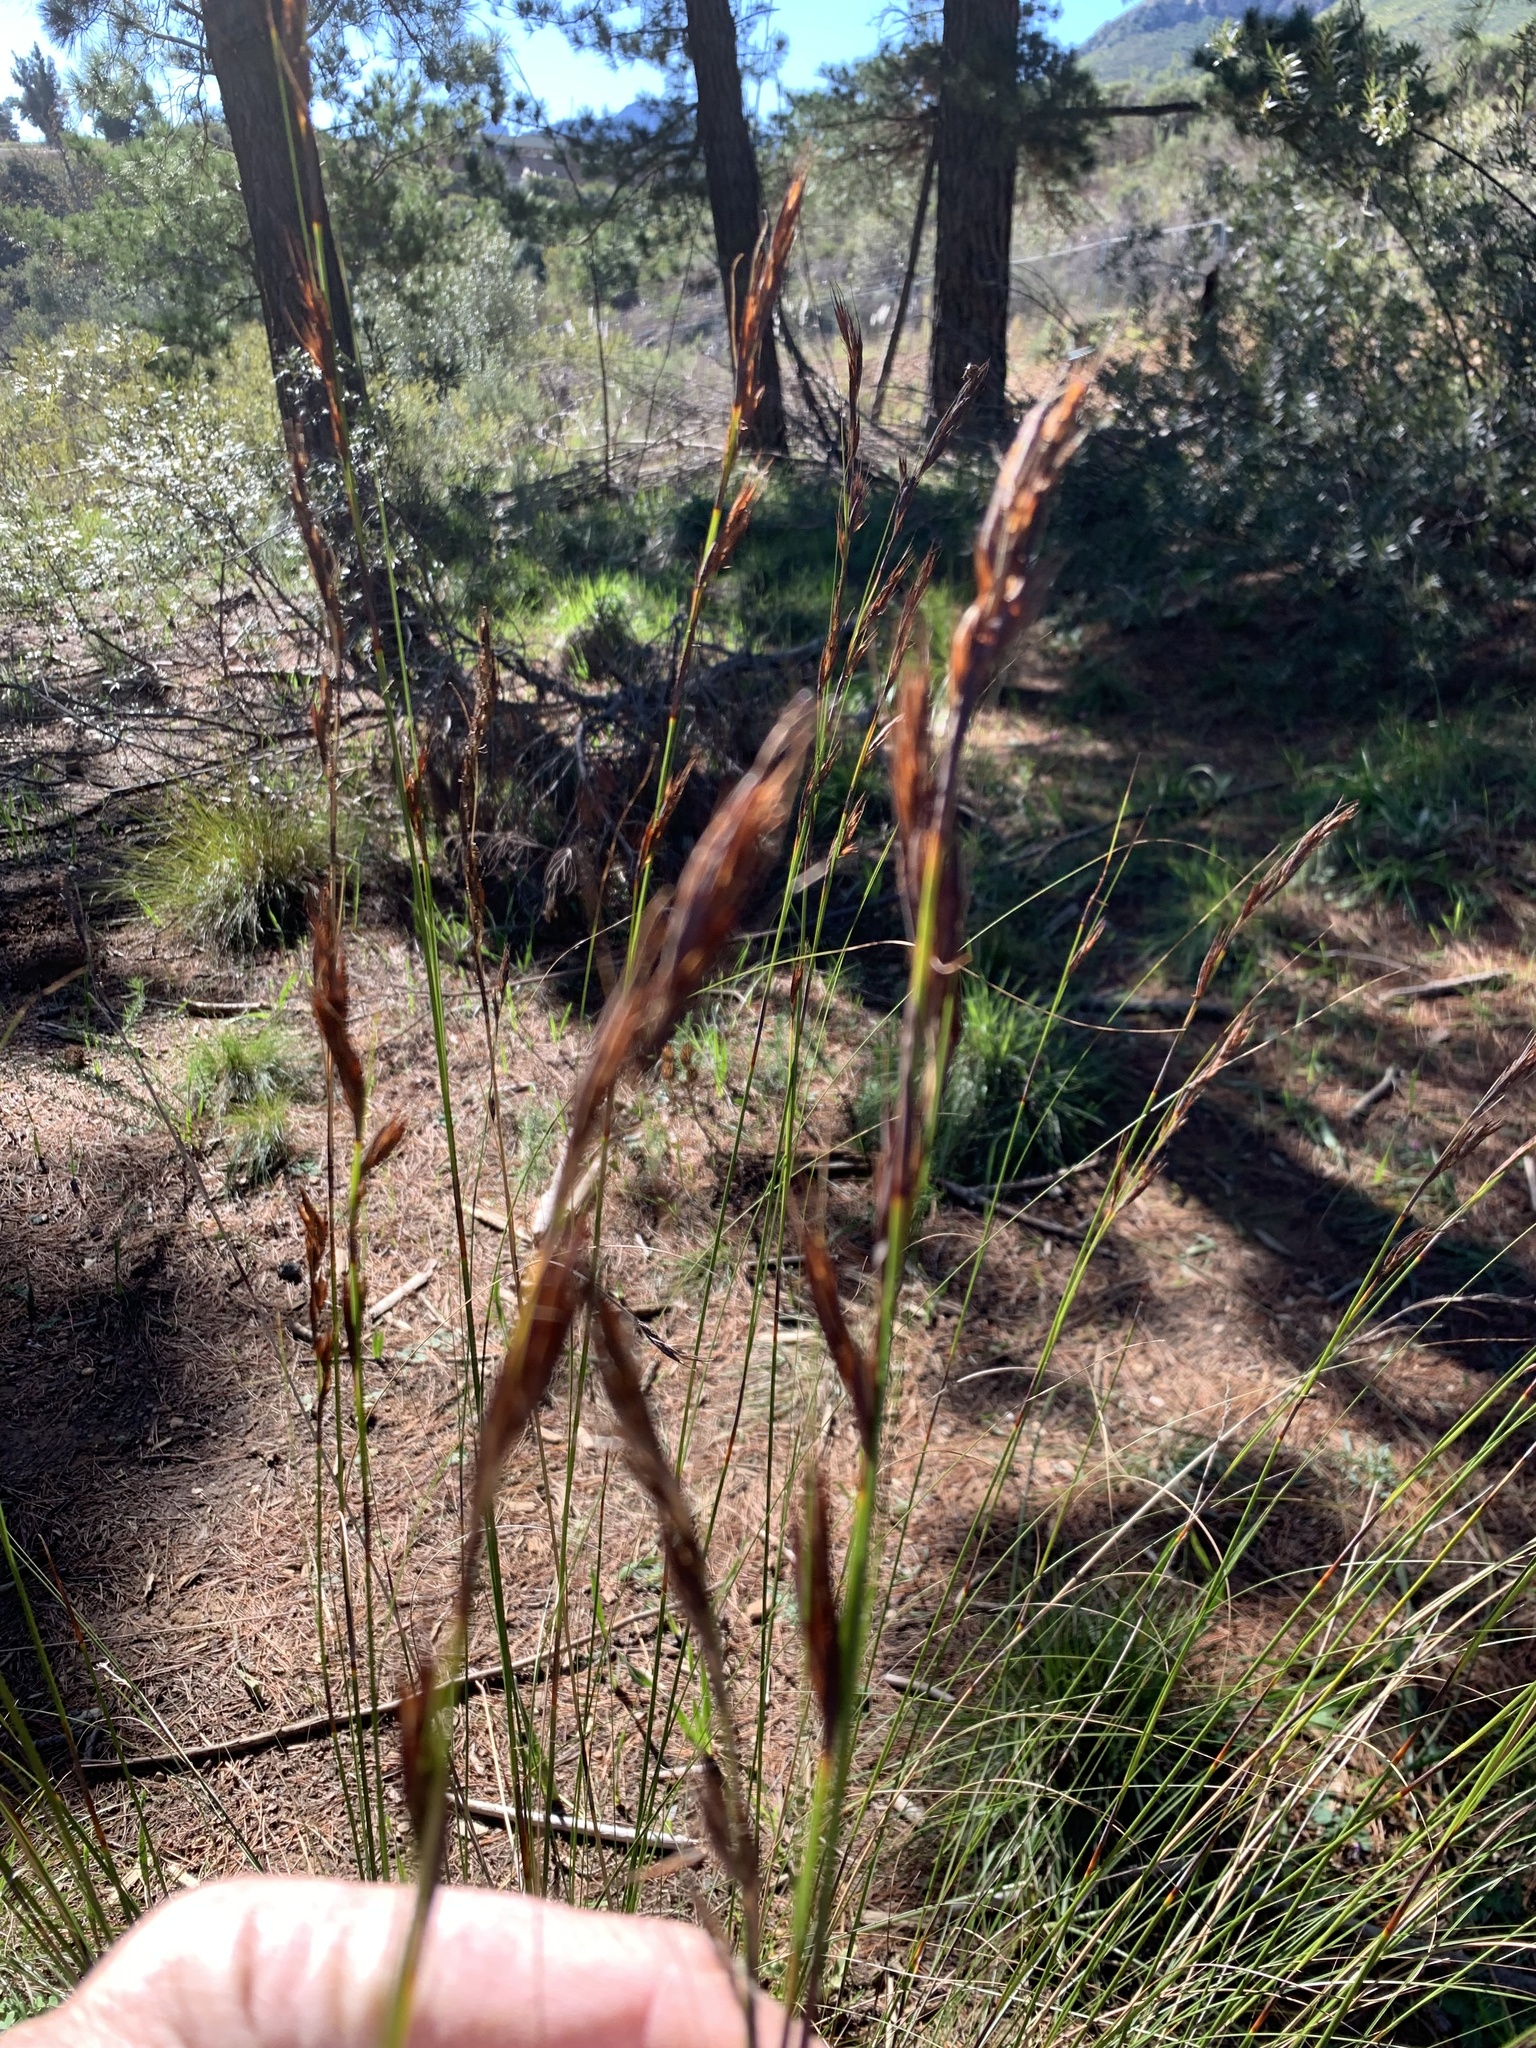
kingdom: Plantae
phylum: Tracheophyta
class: Liliopsida
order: Poales
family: Cyperaceae
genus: Tetraria
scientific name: Tetraria ustulata
